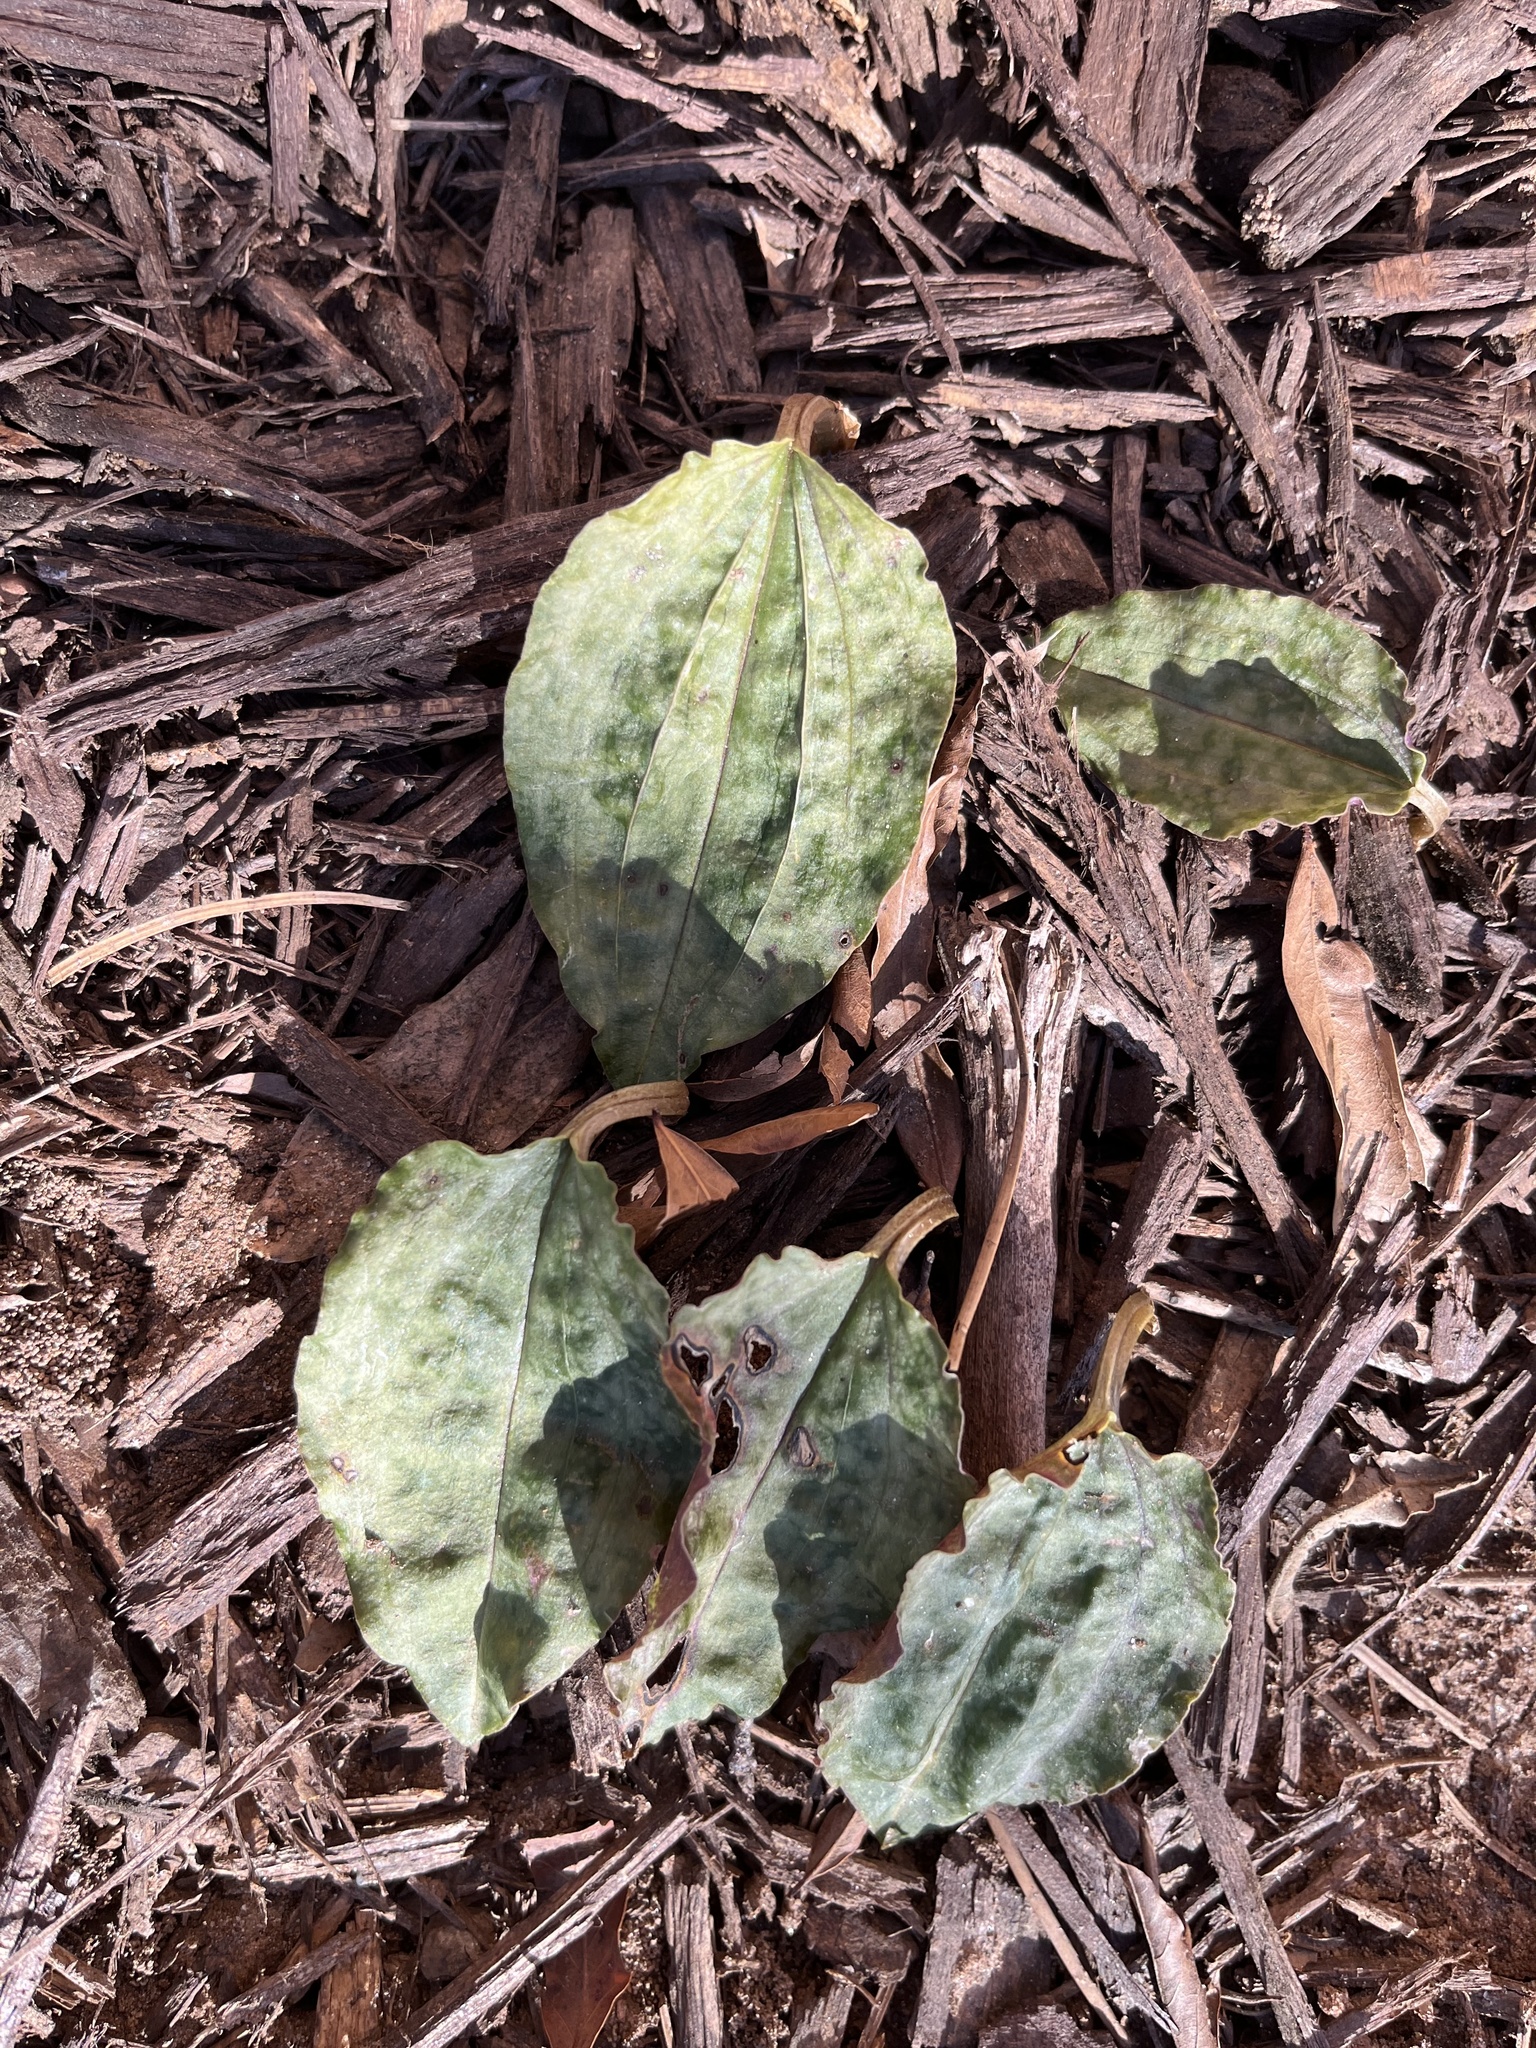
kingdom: Plantae
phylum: Tracheophyta
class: Liliopsida
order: Asparagales
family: Orchidaceae
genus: Tipularia
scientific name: Tipularia discolor
